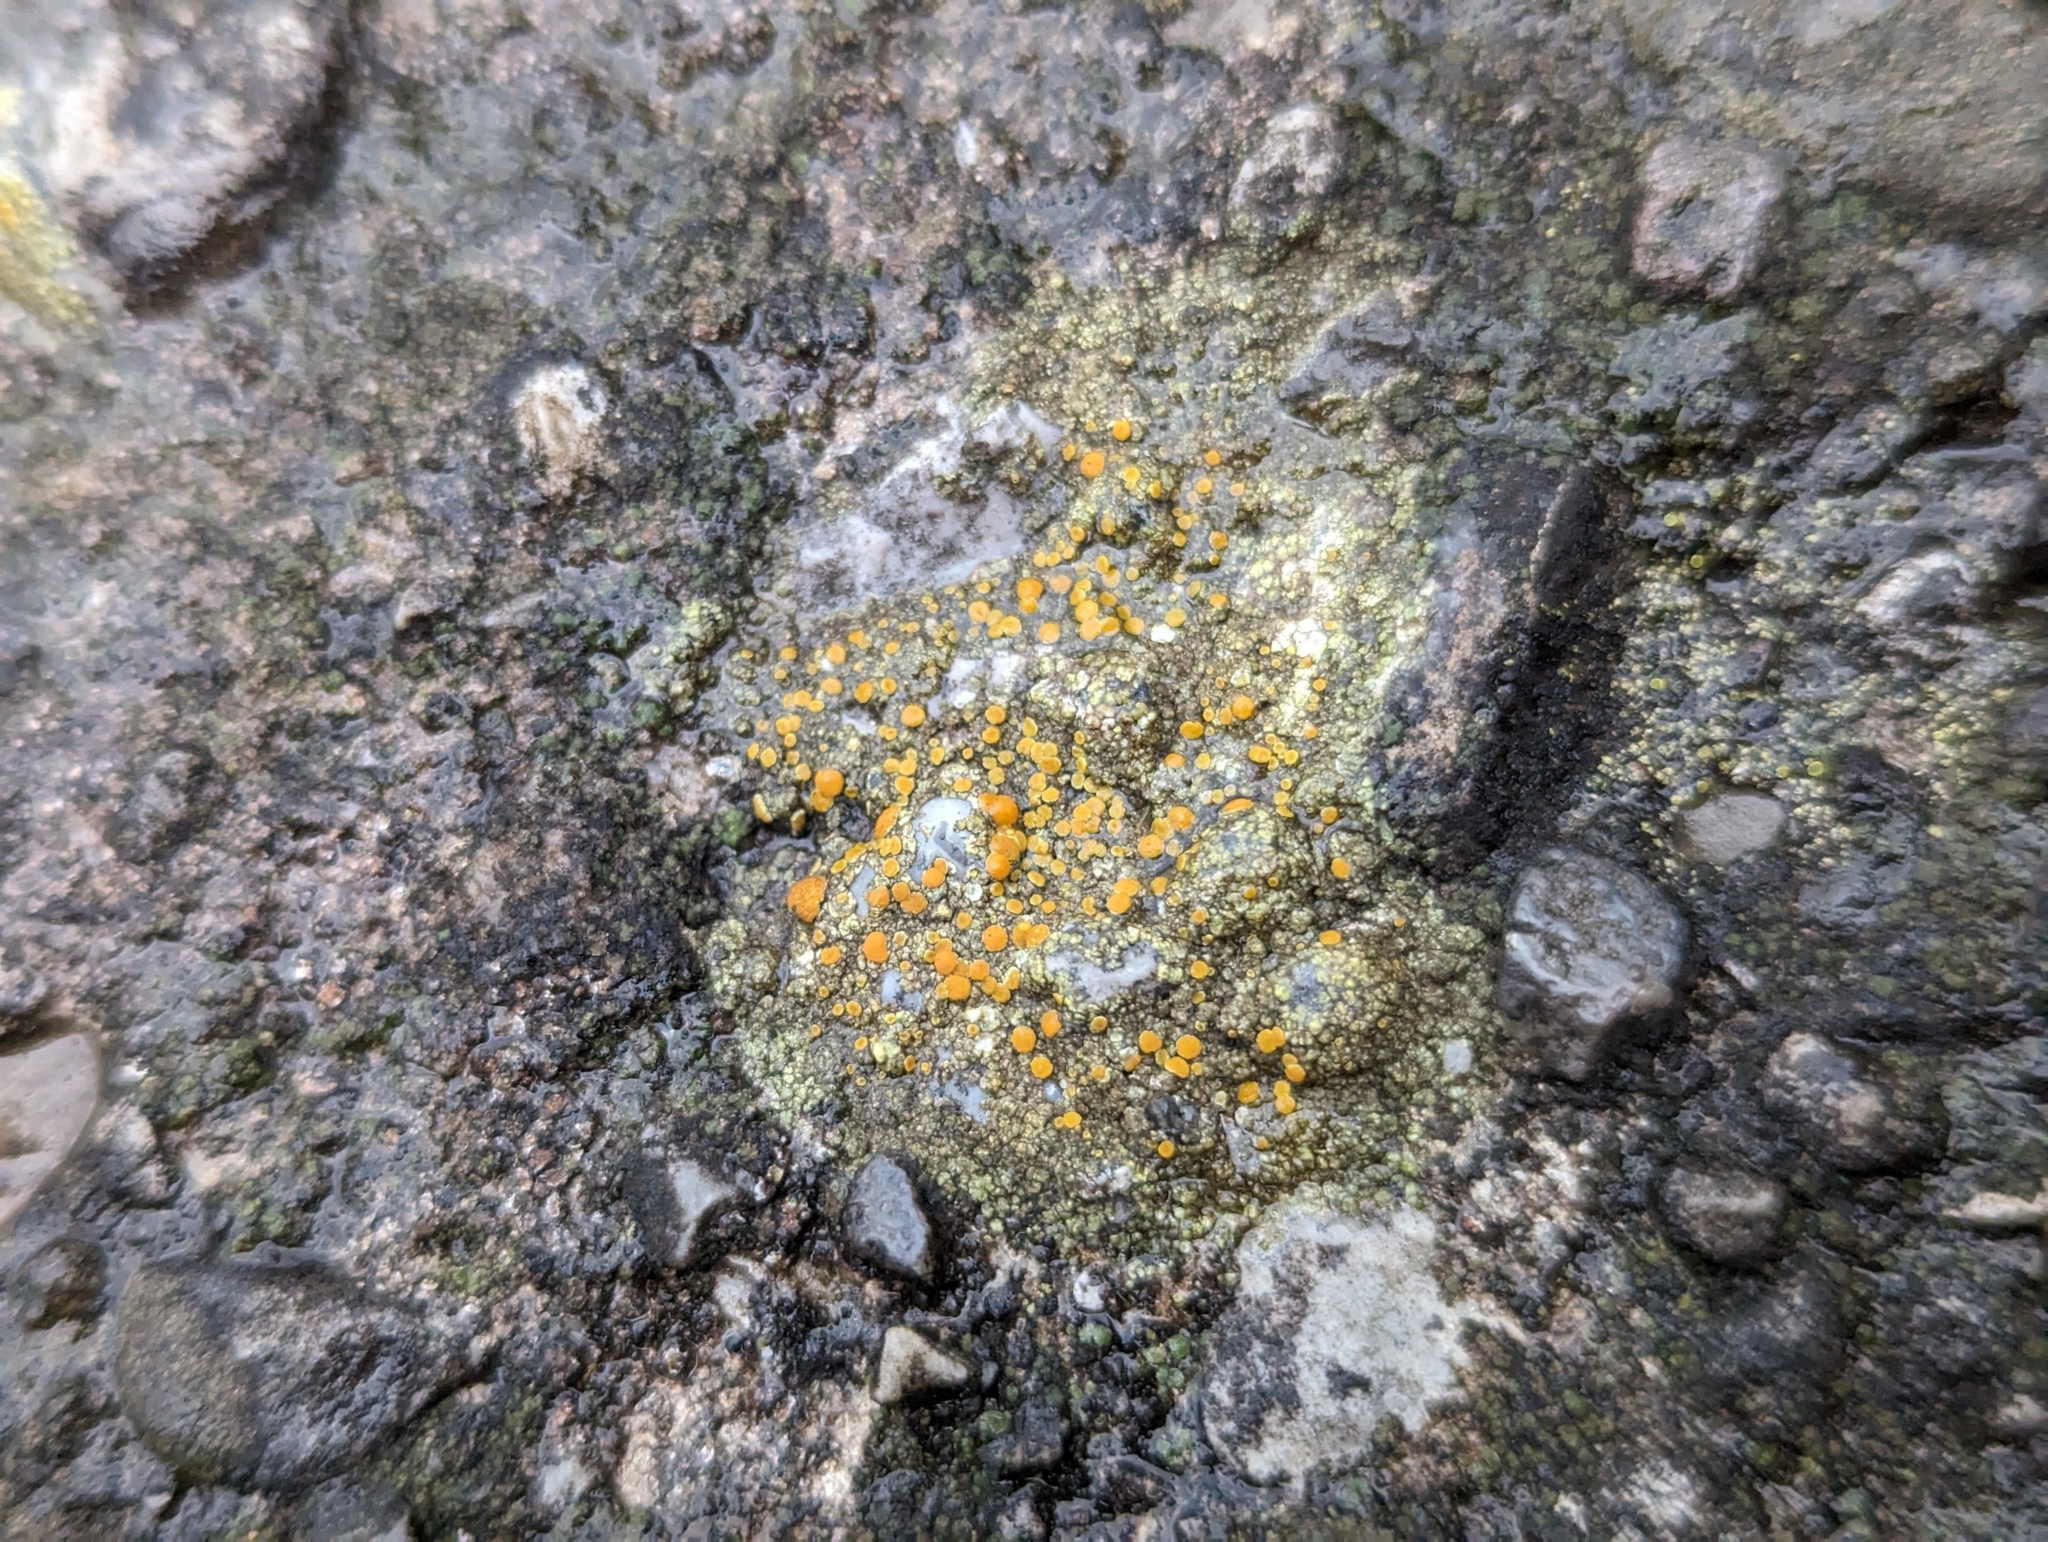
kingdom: Fungi
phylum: Ascomycota
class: Lecanoromycetes
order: Teloschistales
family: Teloschistaceae
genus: Gyalolechia
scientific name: Gyalolechia flavovirescens
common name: Sulphur firedot
